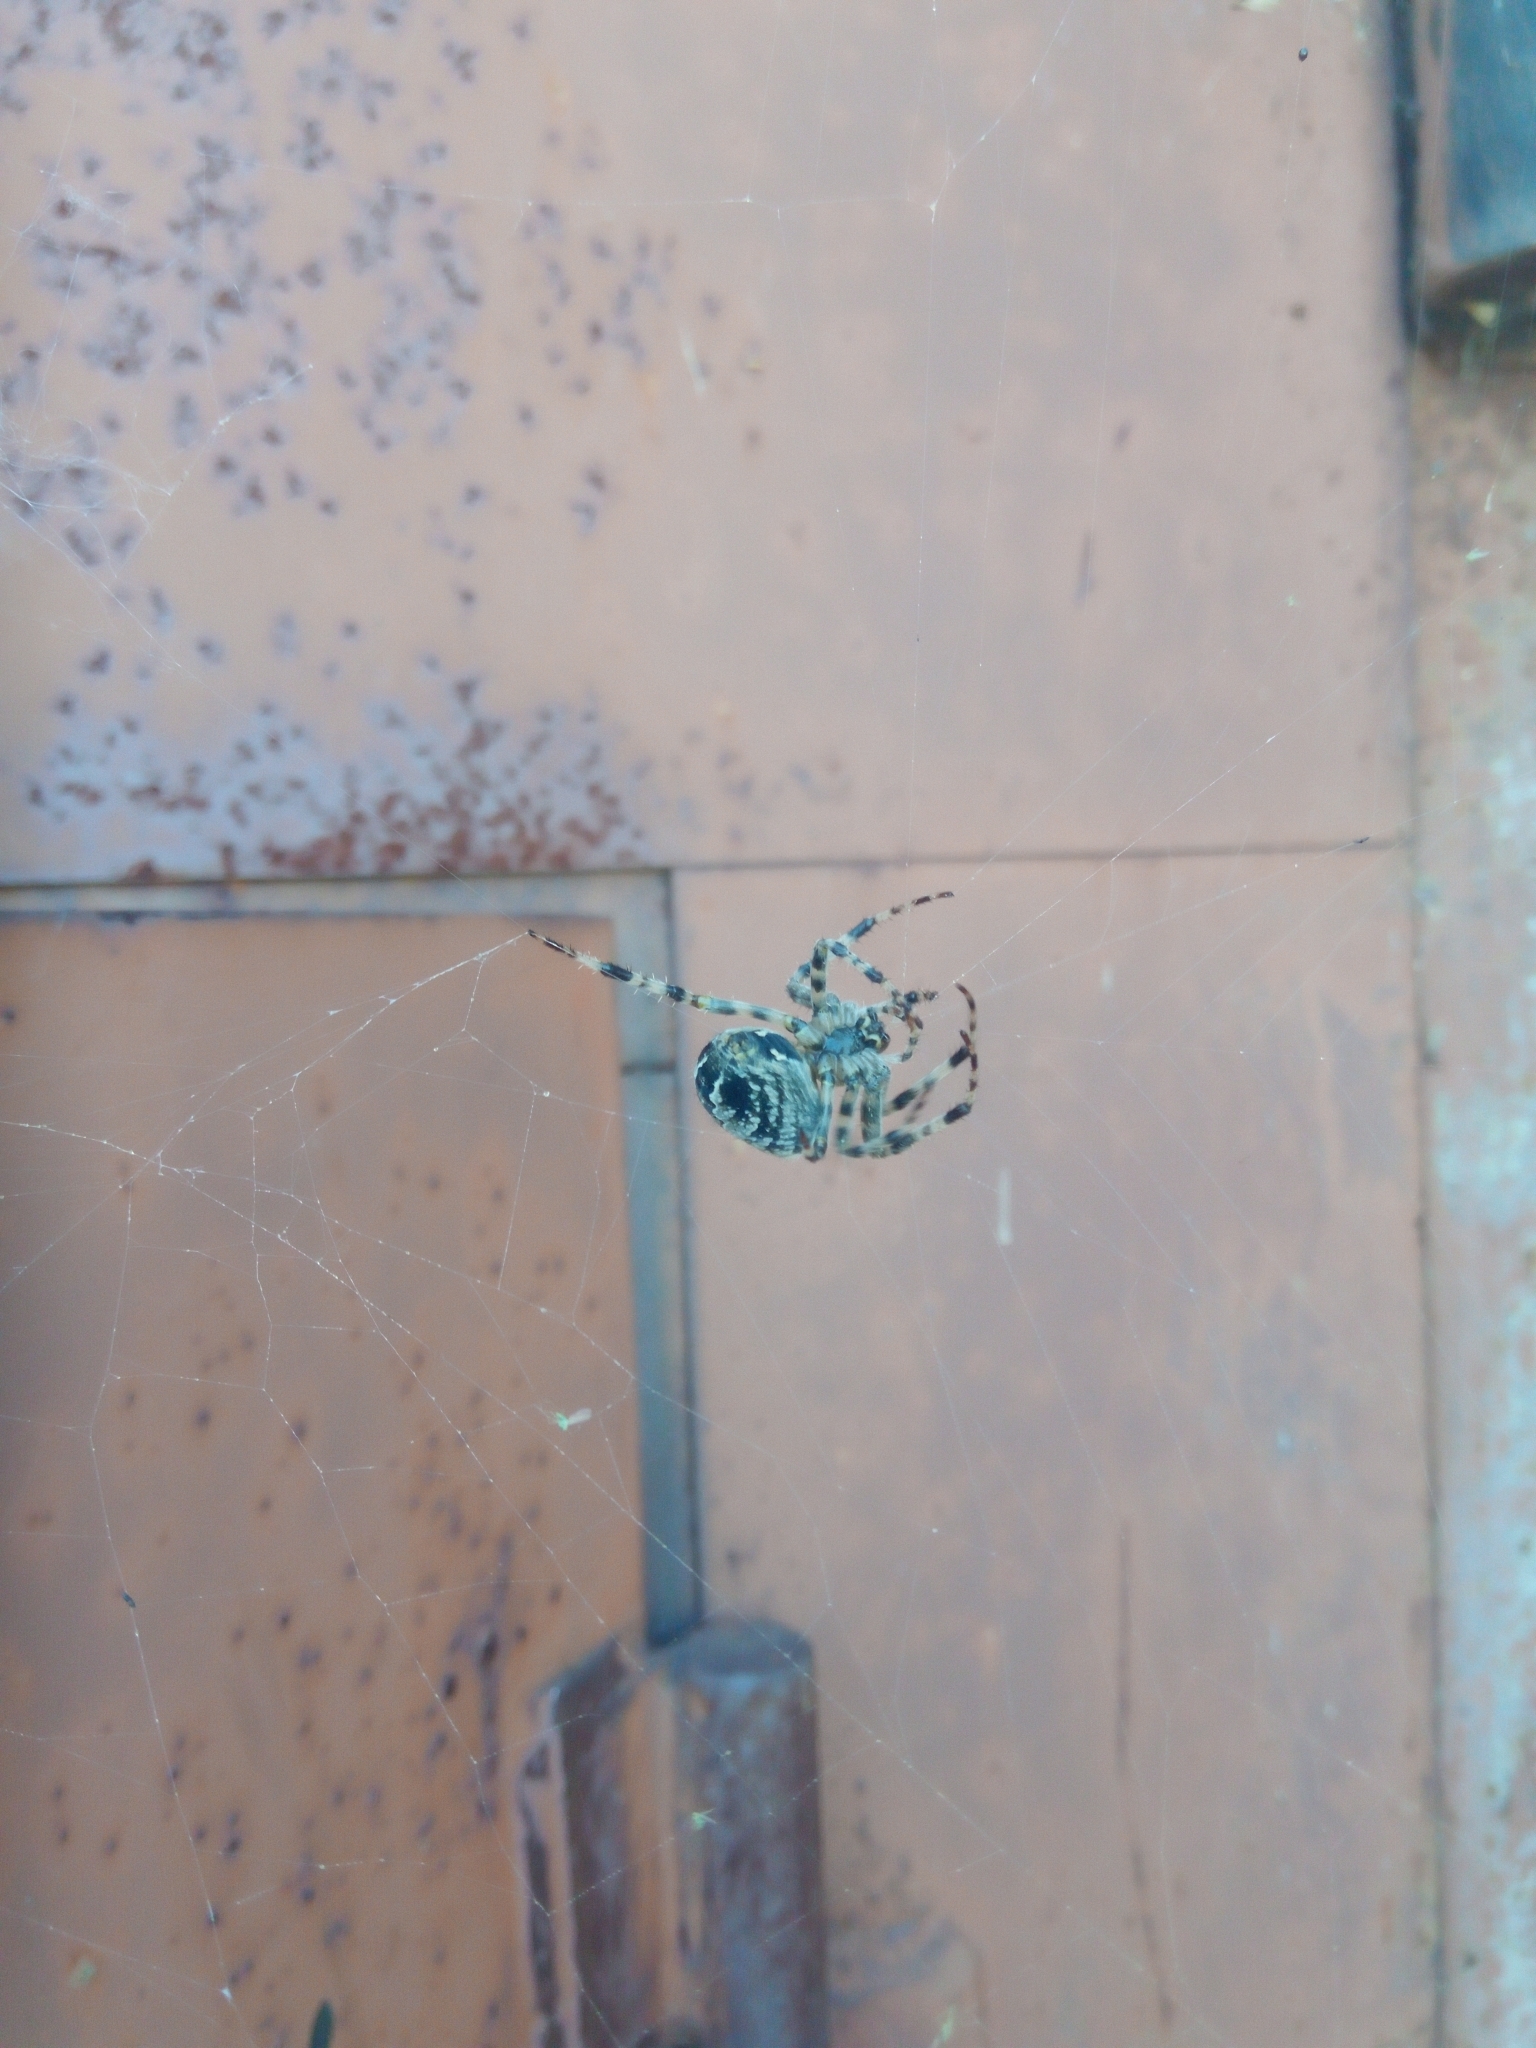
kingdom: Animalia
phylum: Arthropoda
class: Arachnida
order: Araneae
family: Araneidae
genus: Araneus
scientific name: Araneus diadematus
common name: Cross orbweaver
